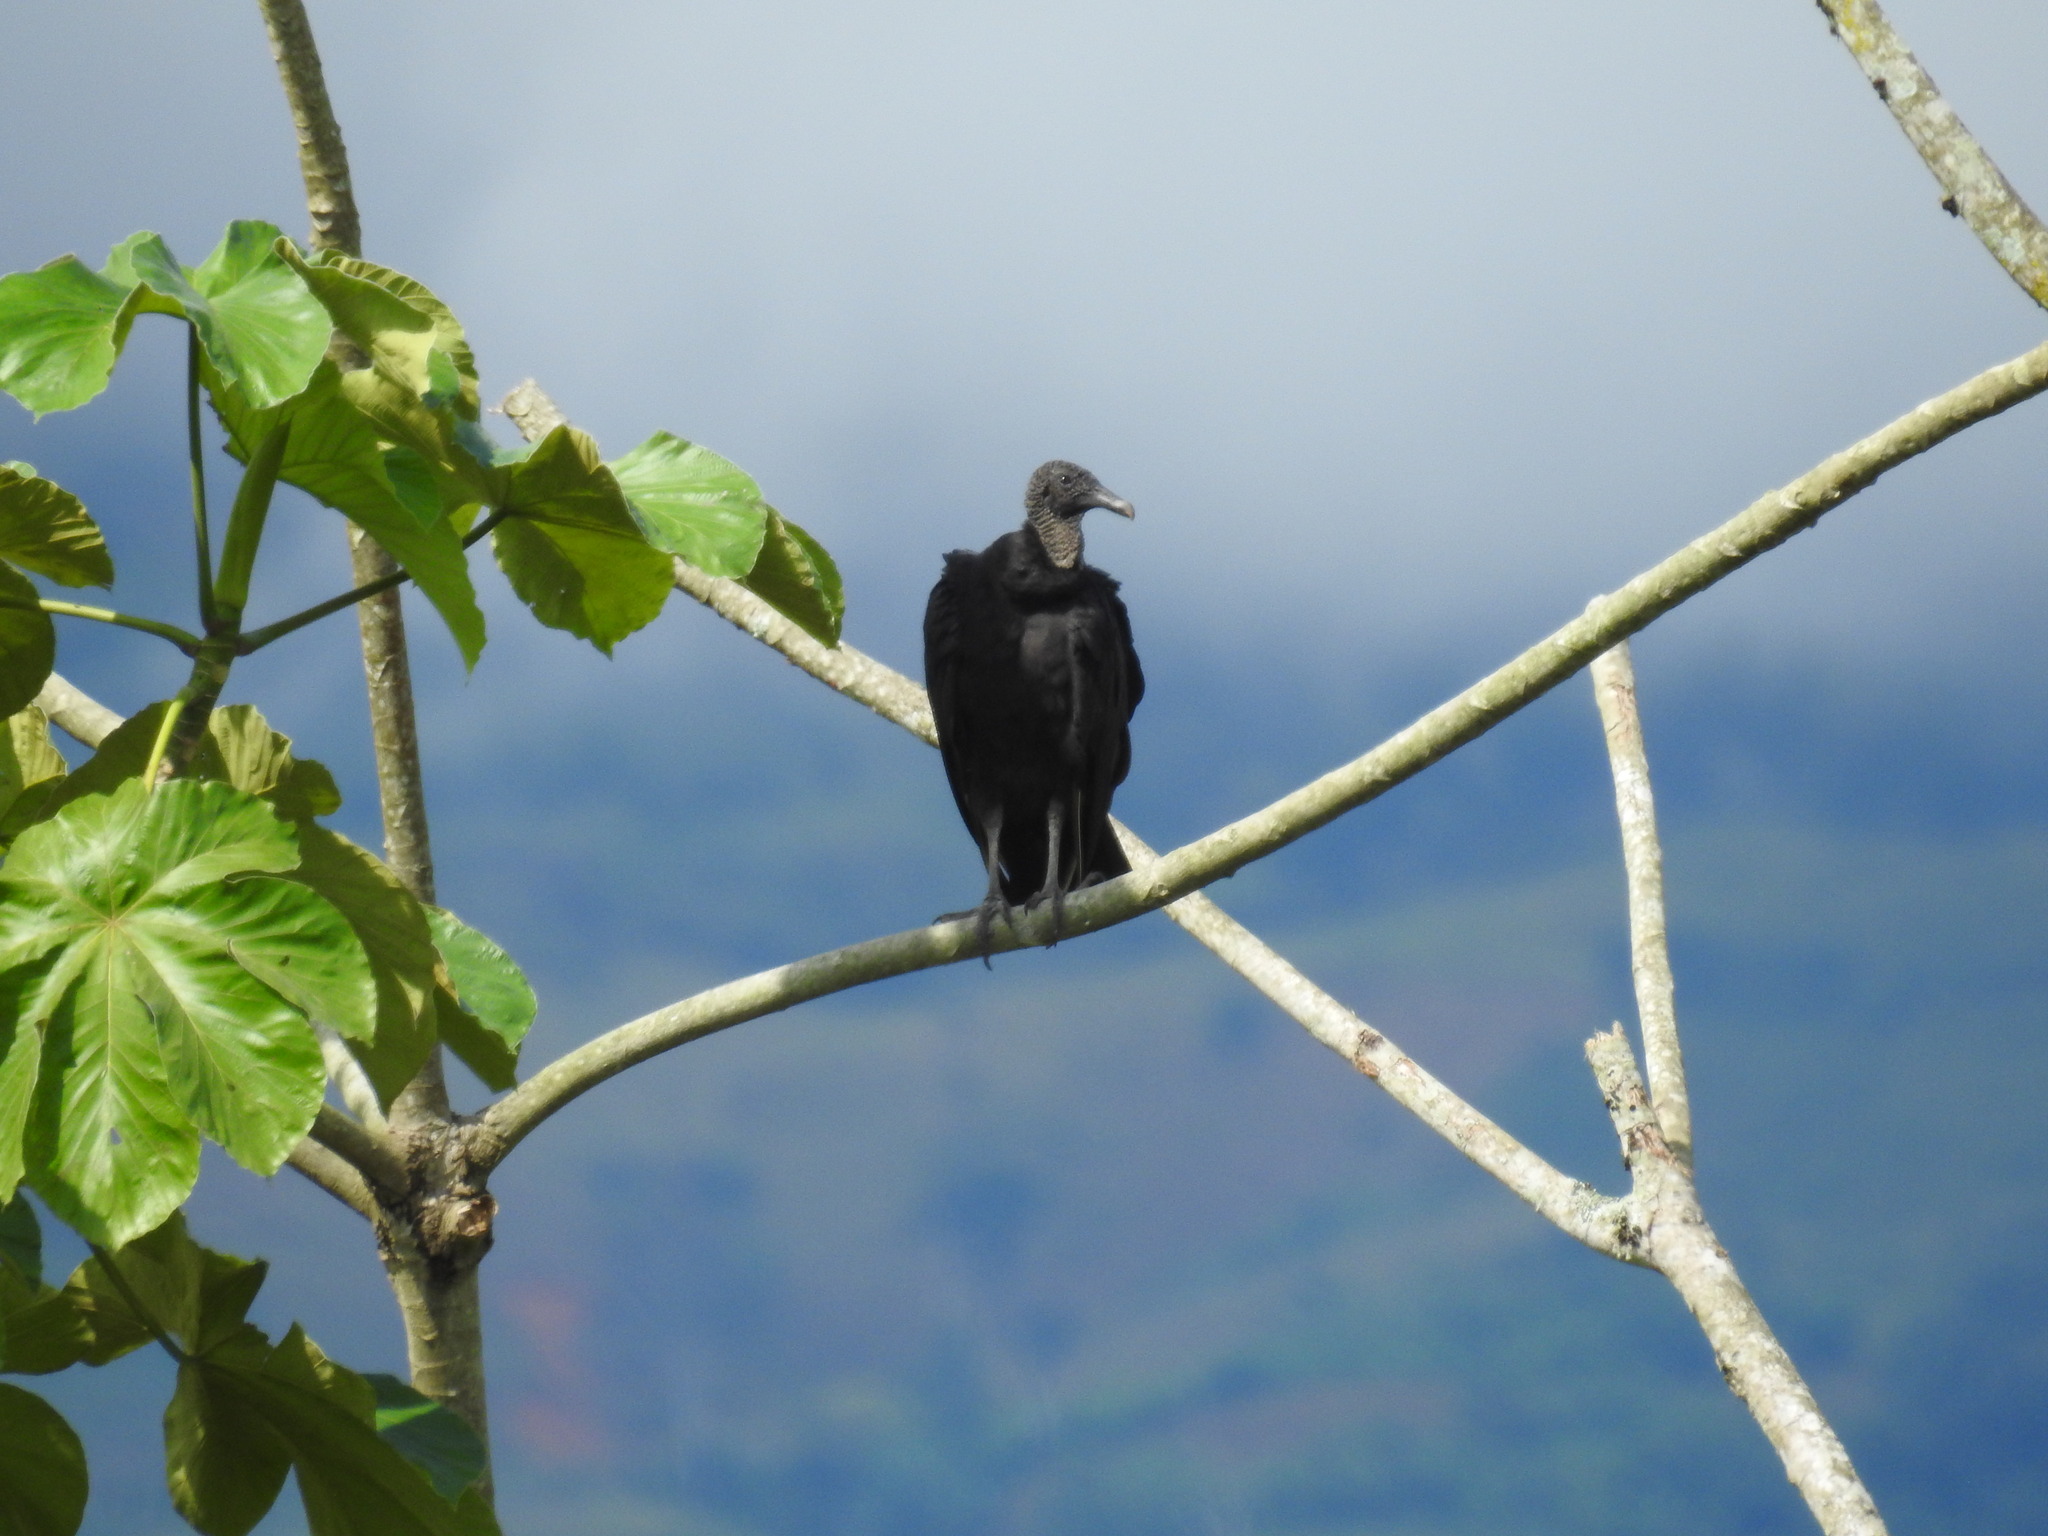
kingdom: Animalia
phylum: Chordata
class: Aves
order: Accipitriformes
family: Cathartidae
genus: Coragyps
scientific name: Coragyps atratus
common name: Black vulture
